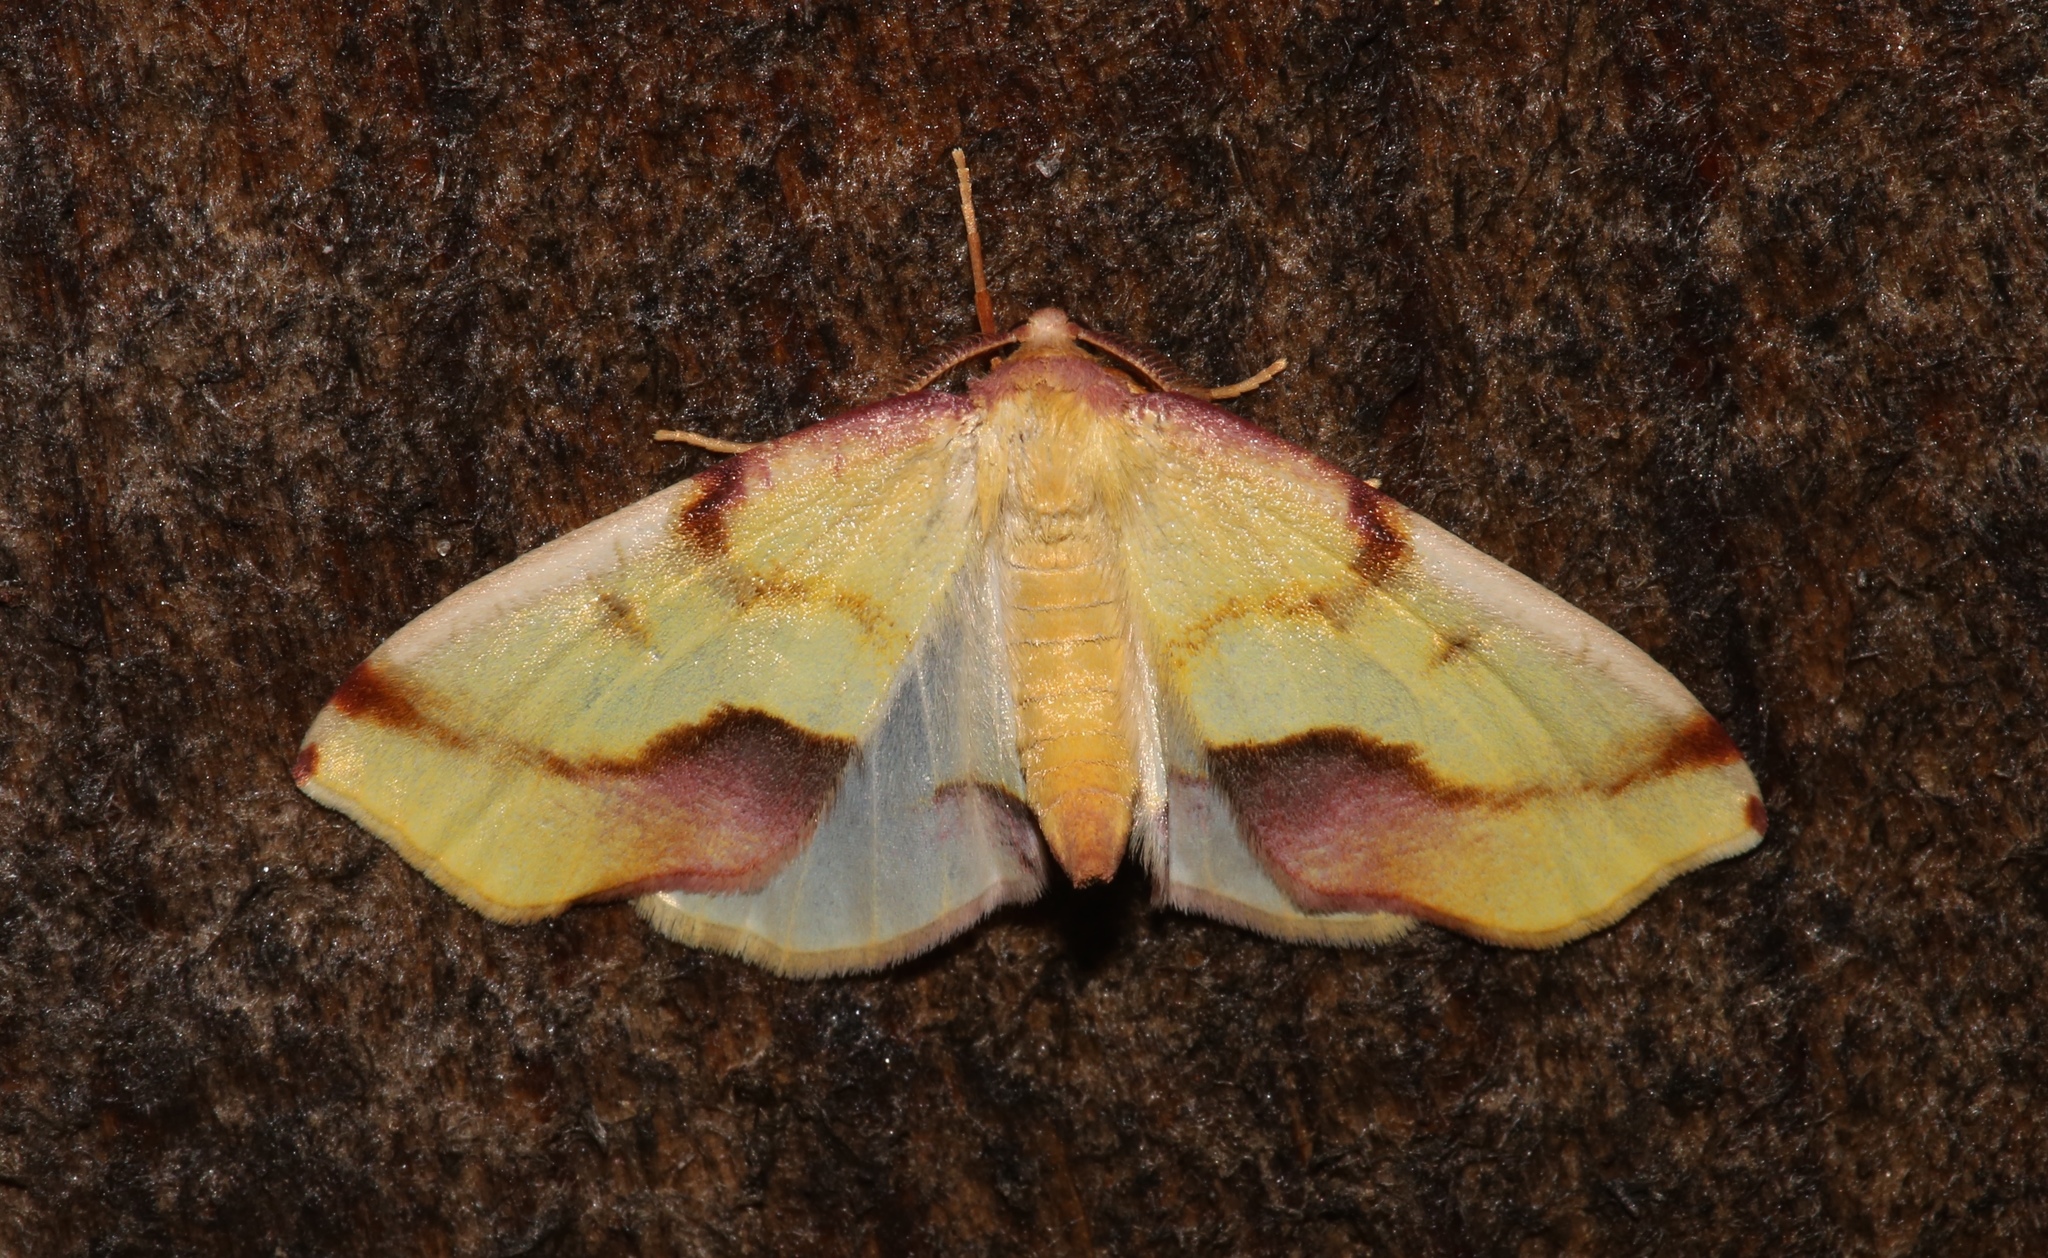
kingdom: Animalia
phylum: Arthropoda
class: Insecta
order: Lepidoptera
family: Geometridae
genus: Plagodis
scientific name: Plagodis serinaria
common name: Lemon plagodis
